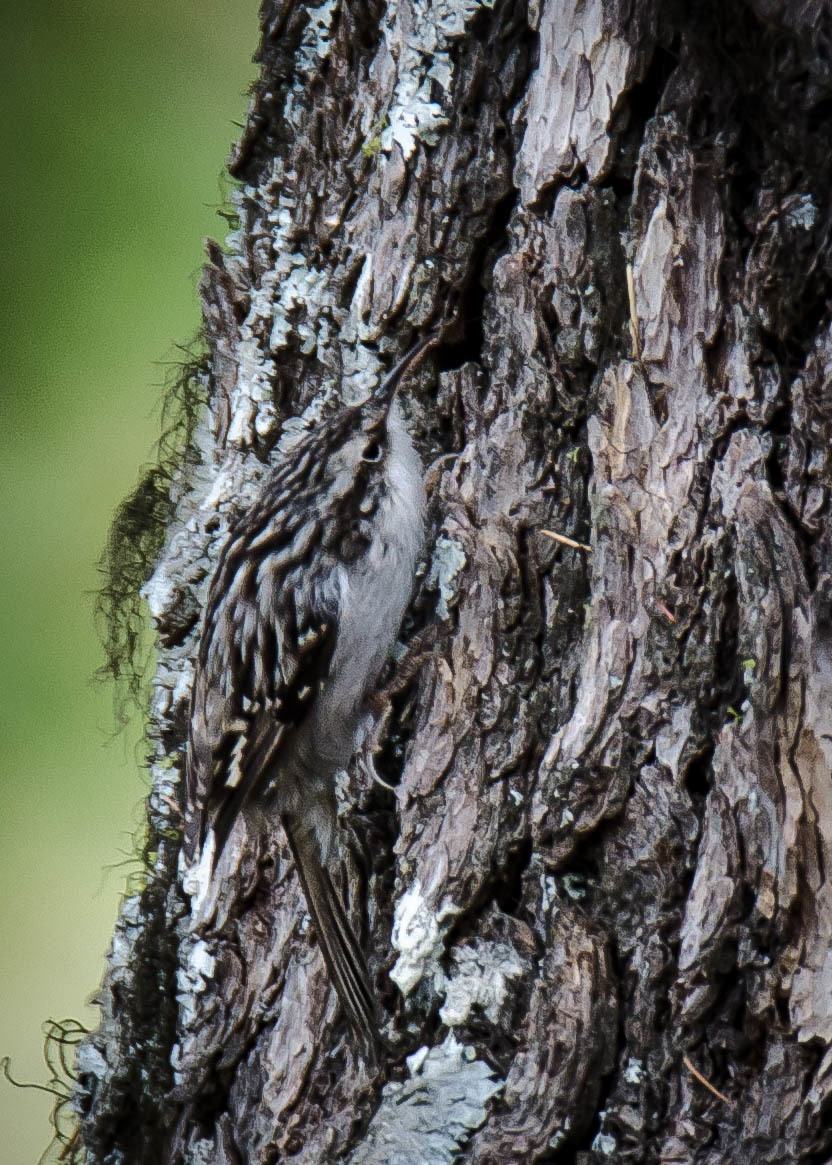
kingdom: Animalia
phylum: Chordata
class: Aves
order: Passeriformes
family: Certhiidae
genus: Certhia
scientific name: Certhia brachydactyla
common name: Short-toed treecreeper
